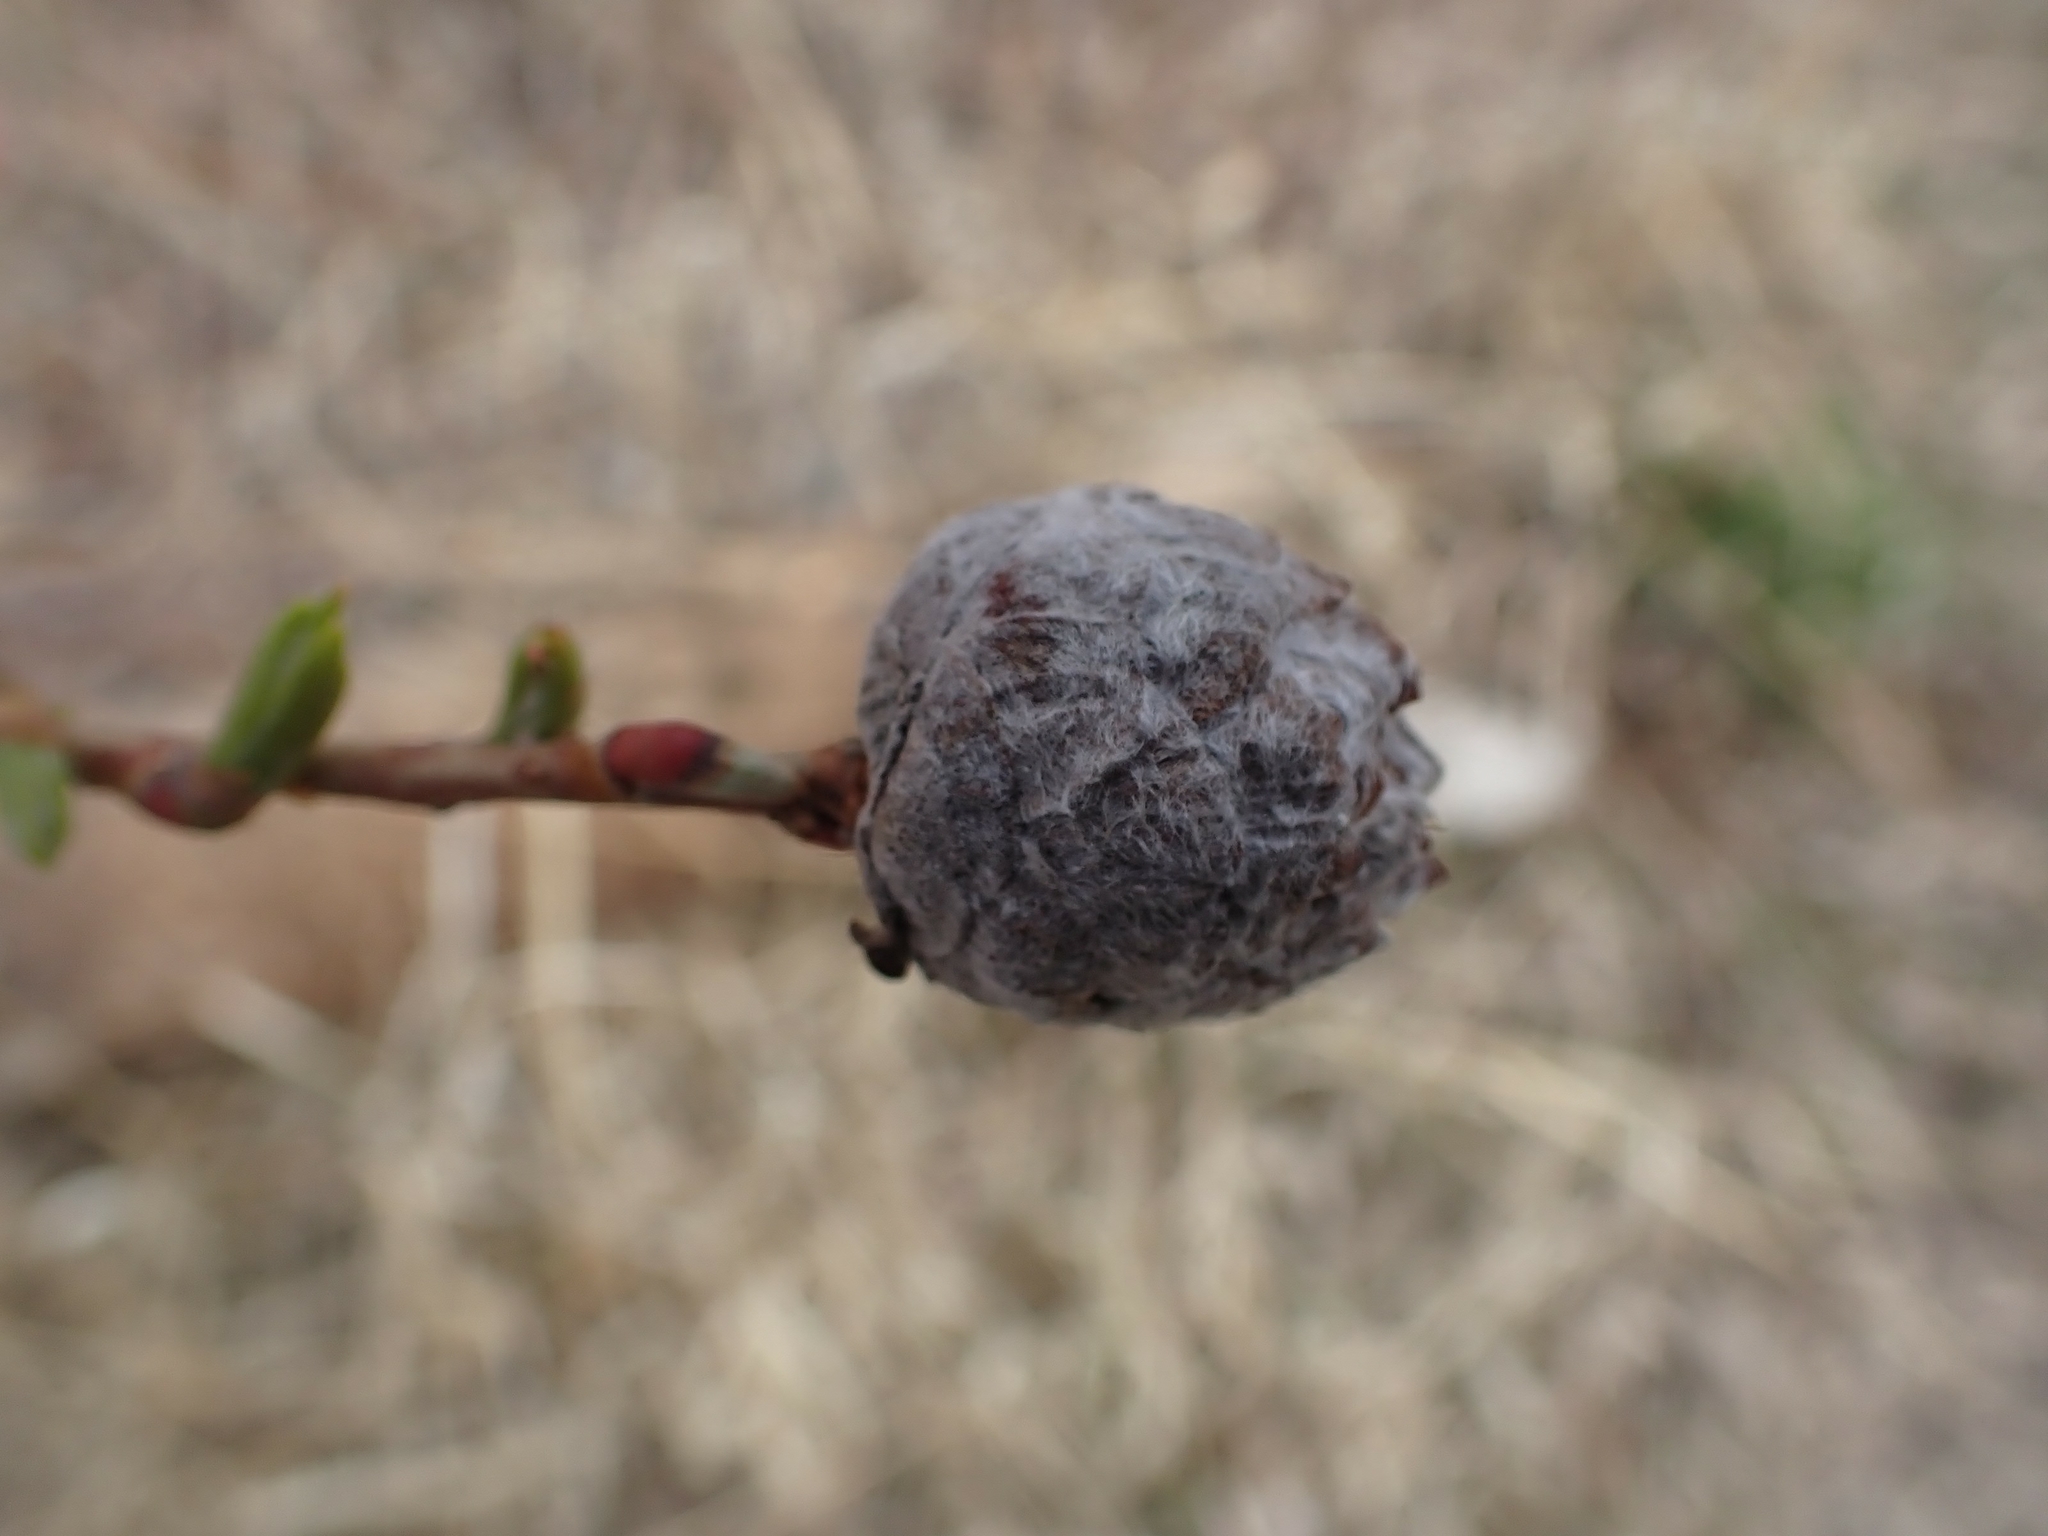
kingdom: Animalia
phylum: Arthropoda
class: Insecta
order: Diptera
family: Cecidomyiidae
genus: Rabdophaga
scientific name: Rabdophaga strobiloides
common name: Willow pinecone gall midge
